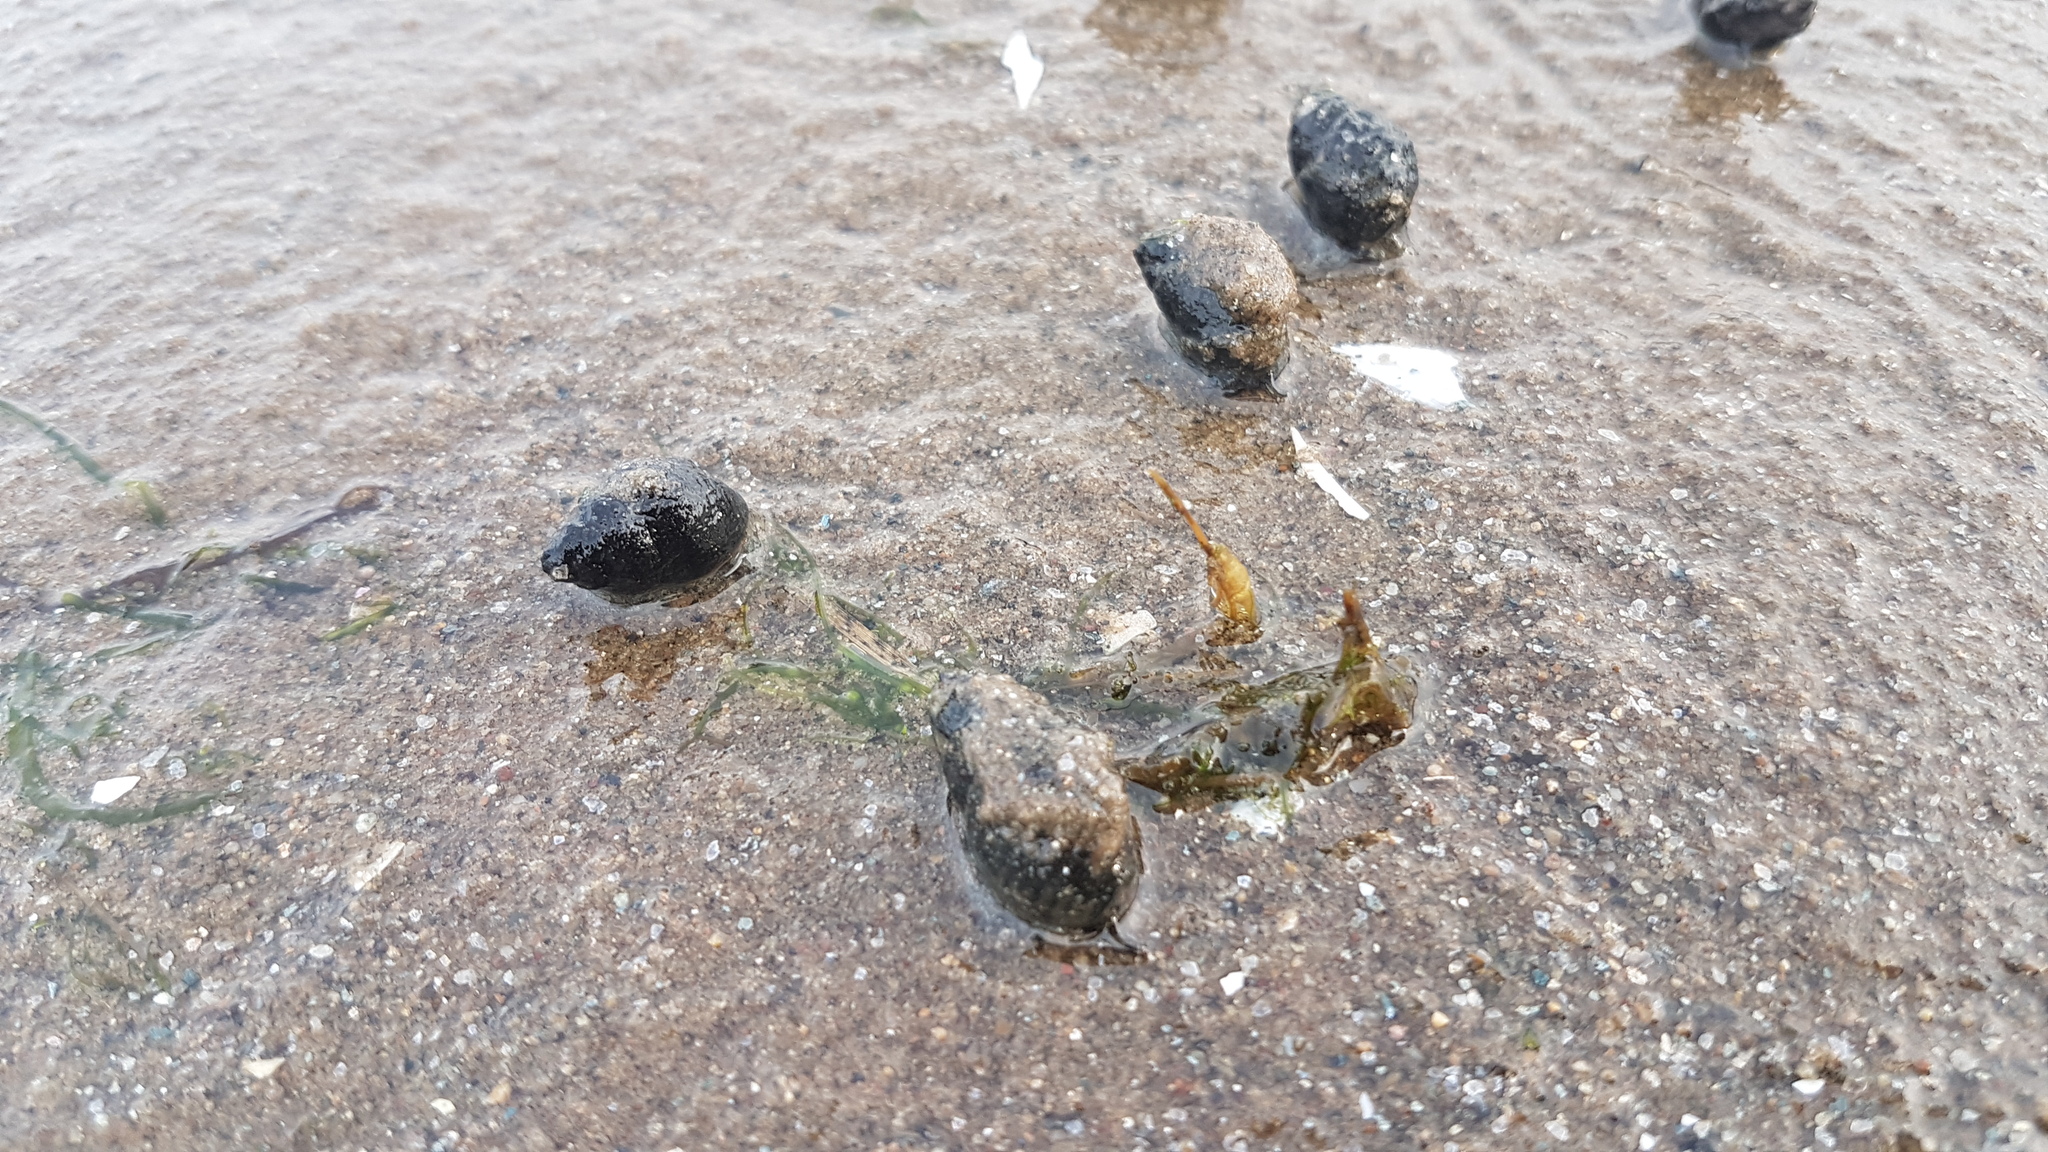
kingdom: Animalia
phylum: Mollusca
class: Gastropoda
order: Neogastropoda
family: Nassariidae
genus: Ilyanassa
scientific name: Ilyanassa obsoleta
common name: Eastern mudsnail
